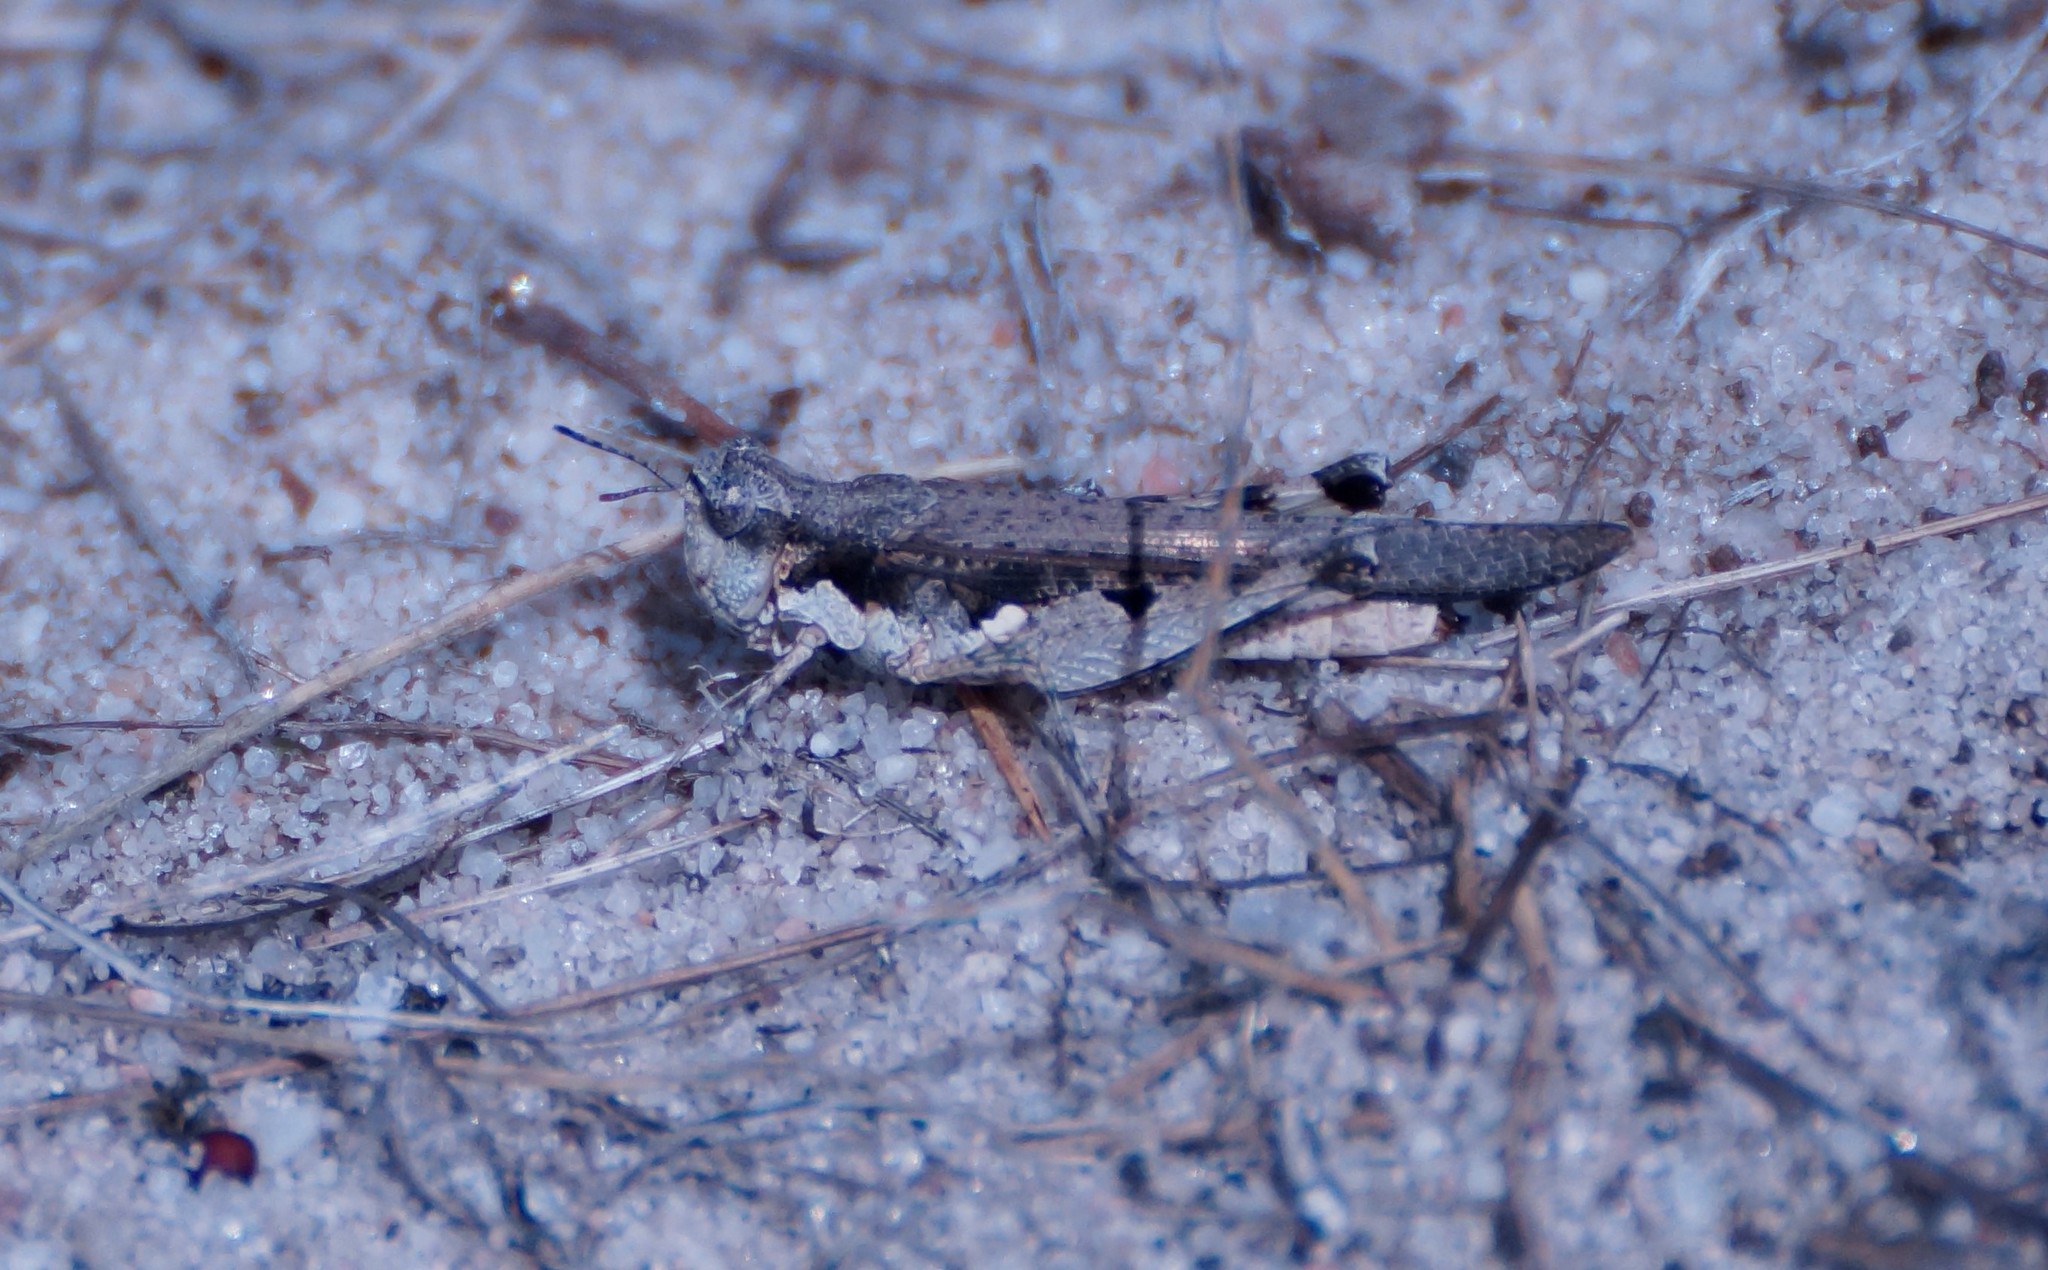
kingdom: Animalia
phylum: Arthropoda
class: Insecta
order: Orthoptera
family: Acrididae
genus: Pycnostictus
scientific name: Pycnostictus seriatus
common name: Common bandwing
